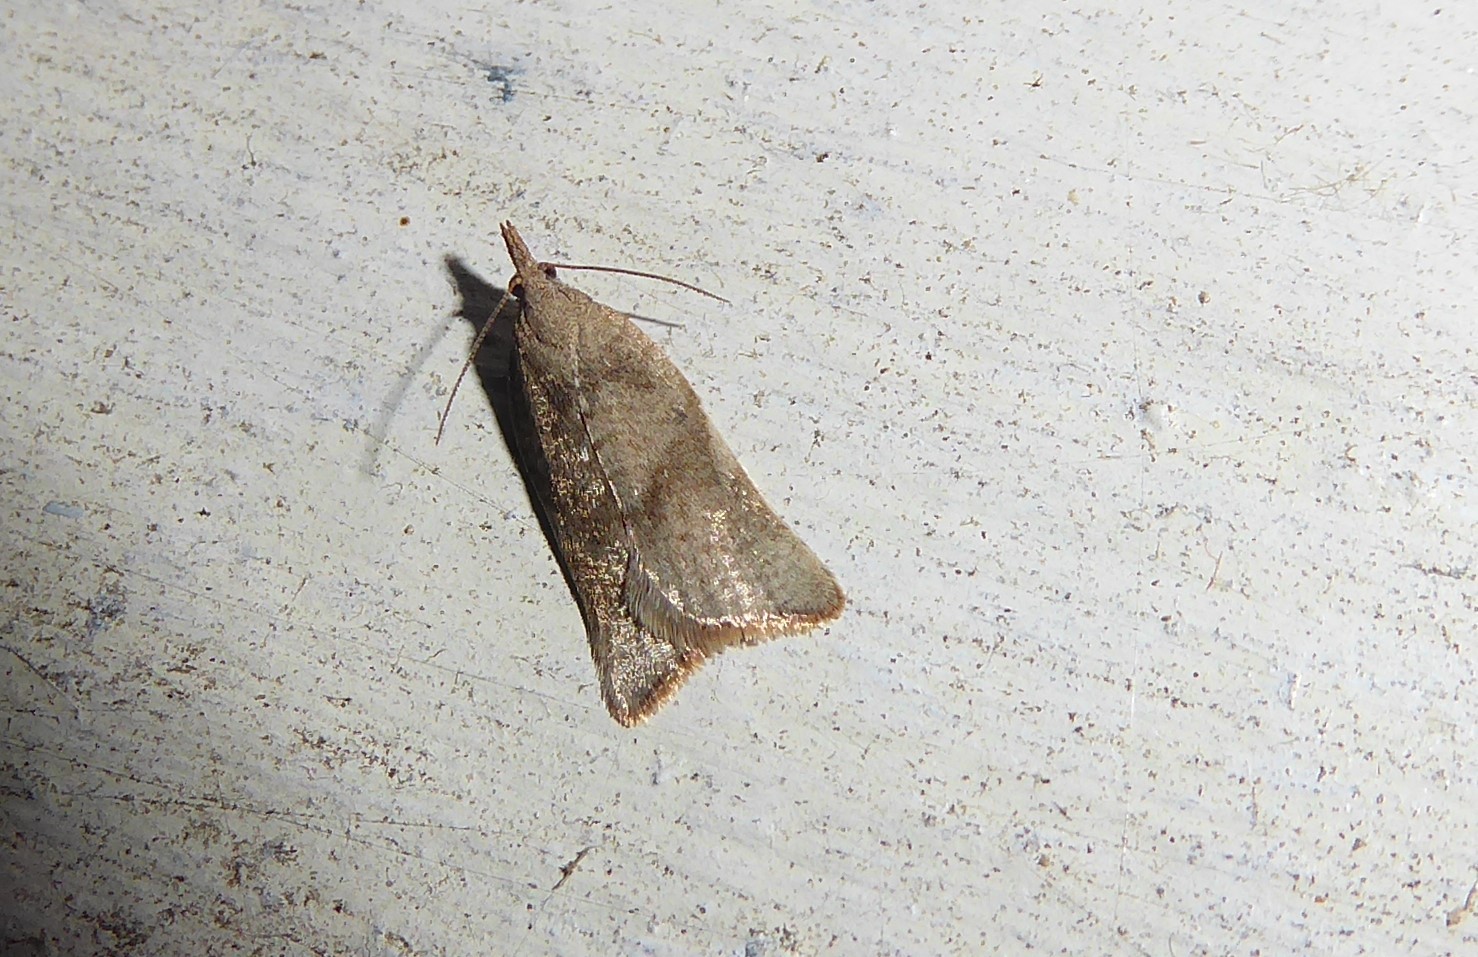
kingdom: Animalia
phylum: Arthropoda
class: Insecta
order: Lepidoptera
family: Tortricidae
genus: Catamacta
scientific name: Catamacta gavisana
